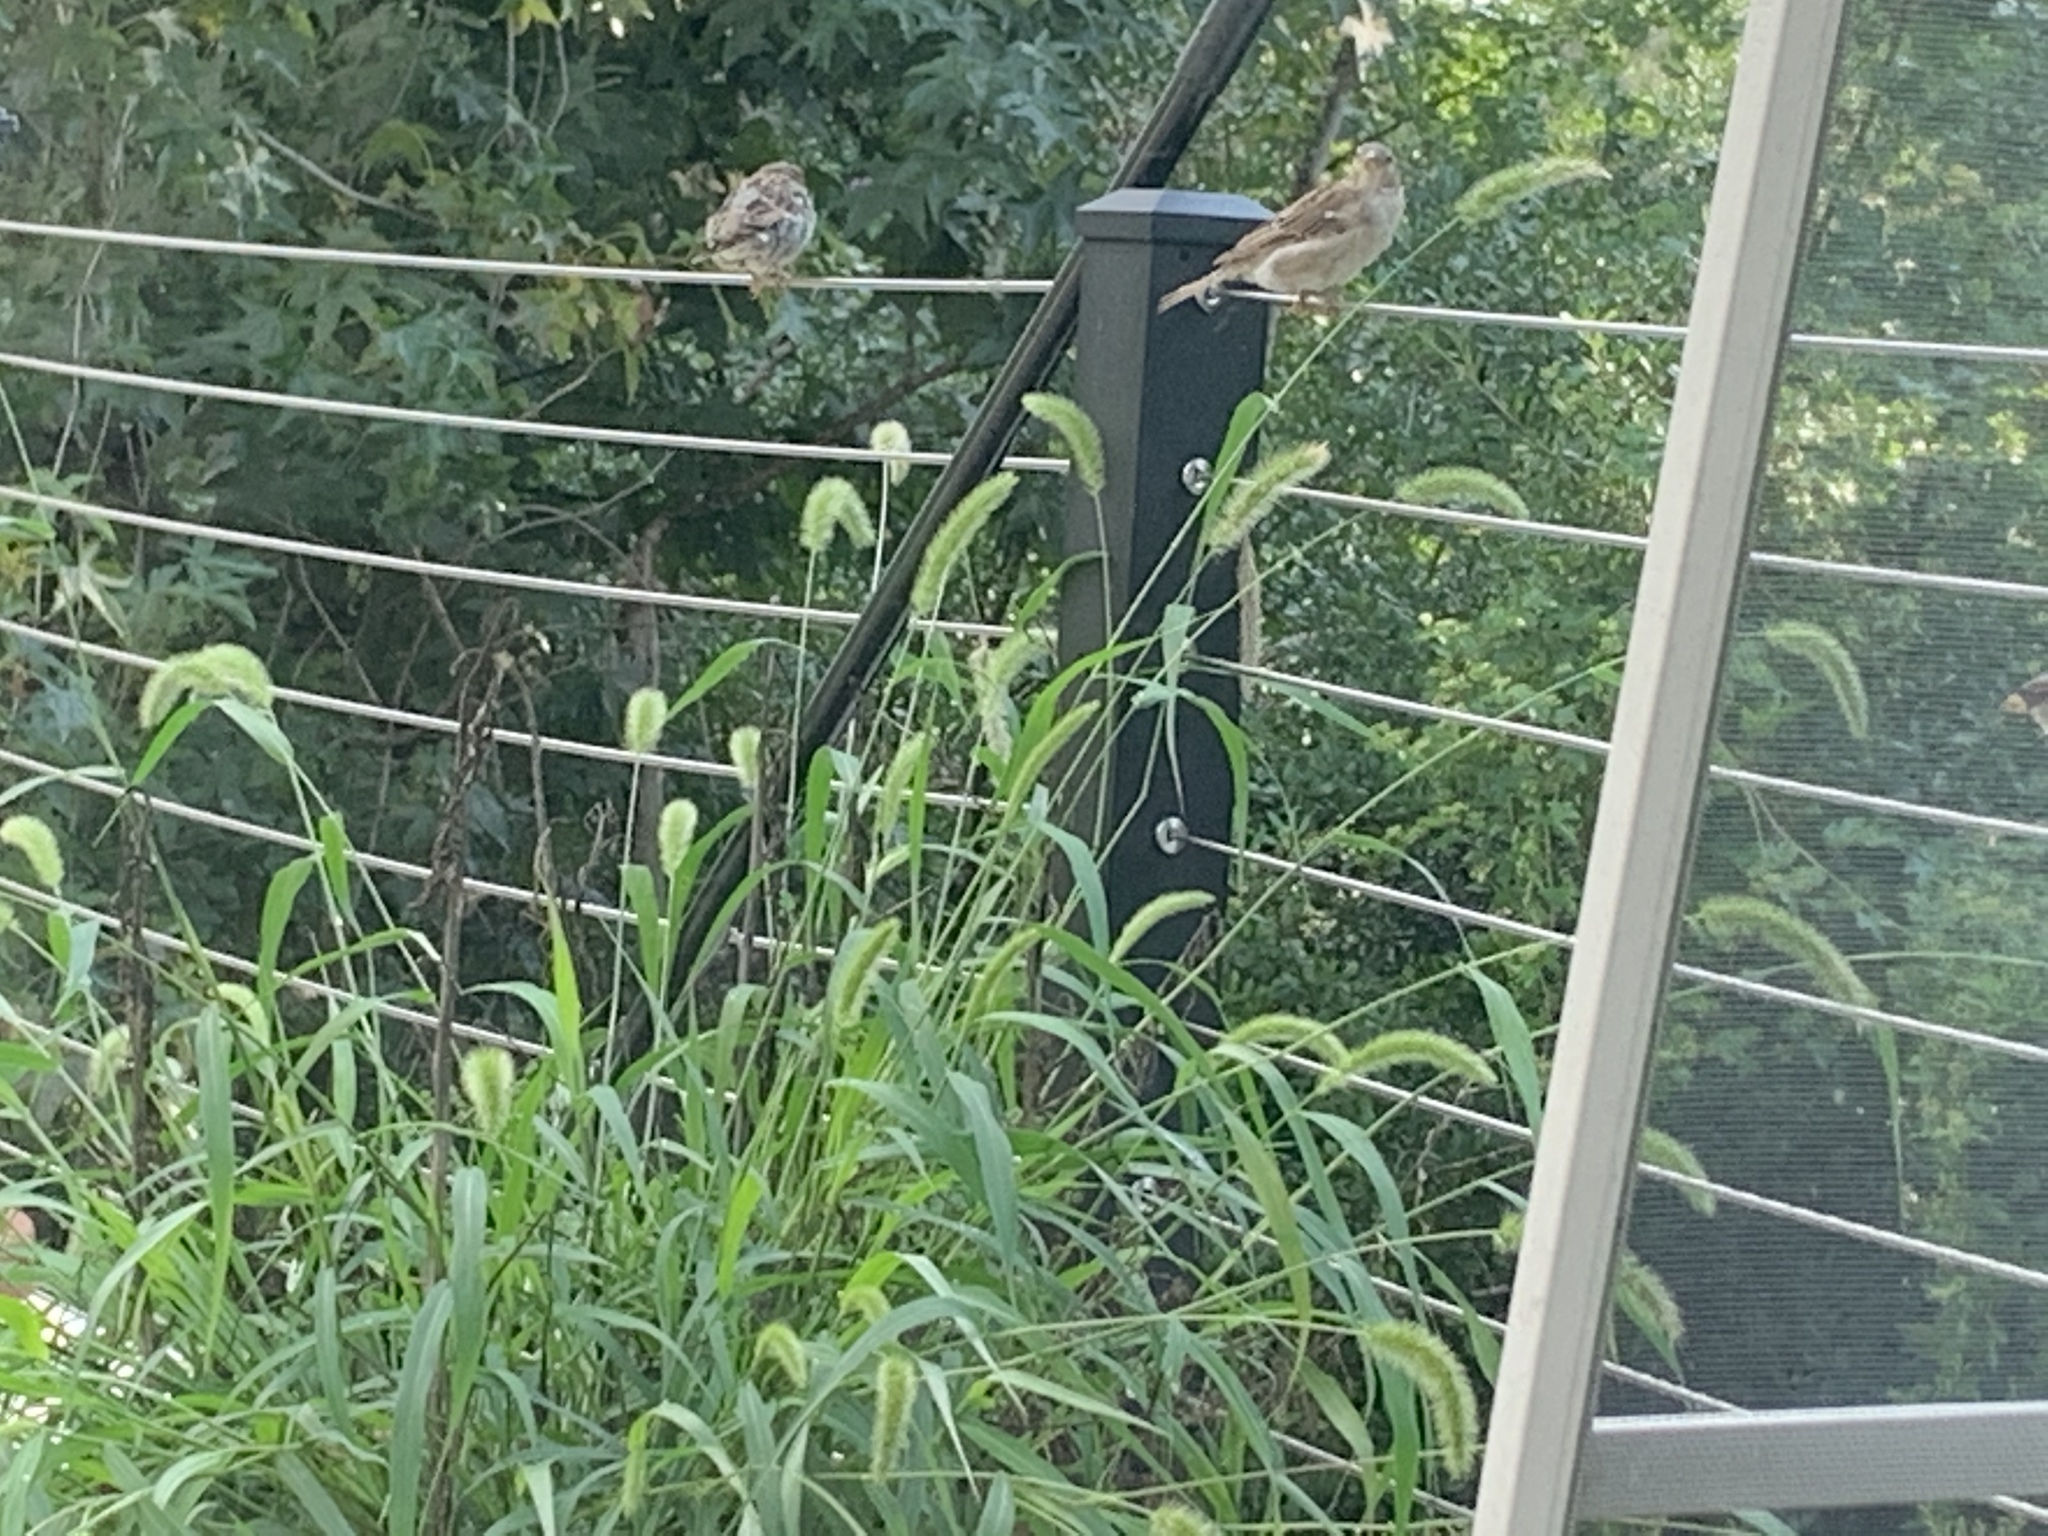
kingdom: Animalia
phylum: Chordata
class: Aves
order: Passeriformes
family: Passeridae
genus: Passer
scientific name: Passer domesticus
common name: House sparrow
